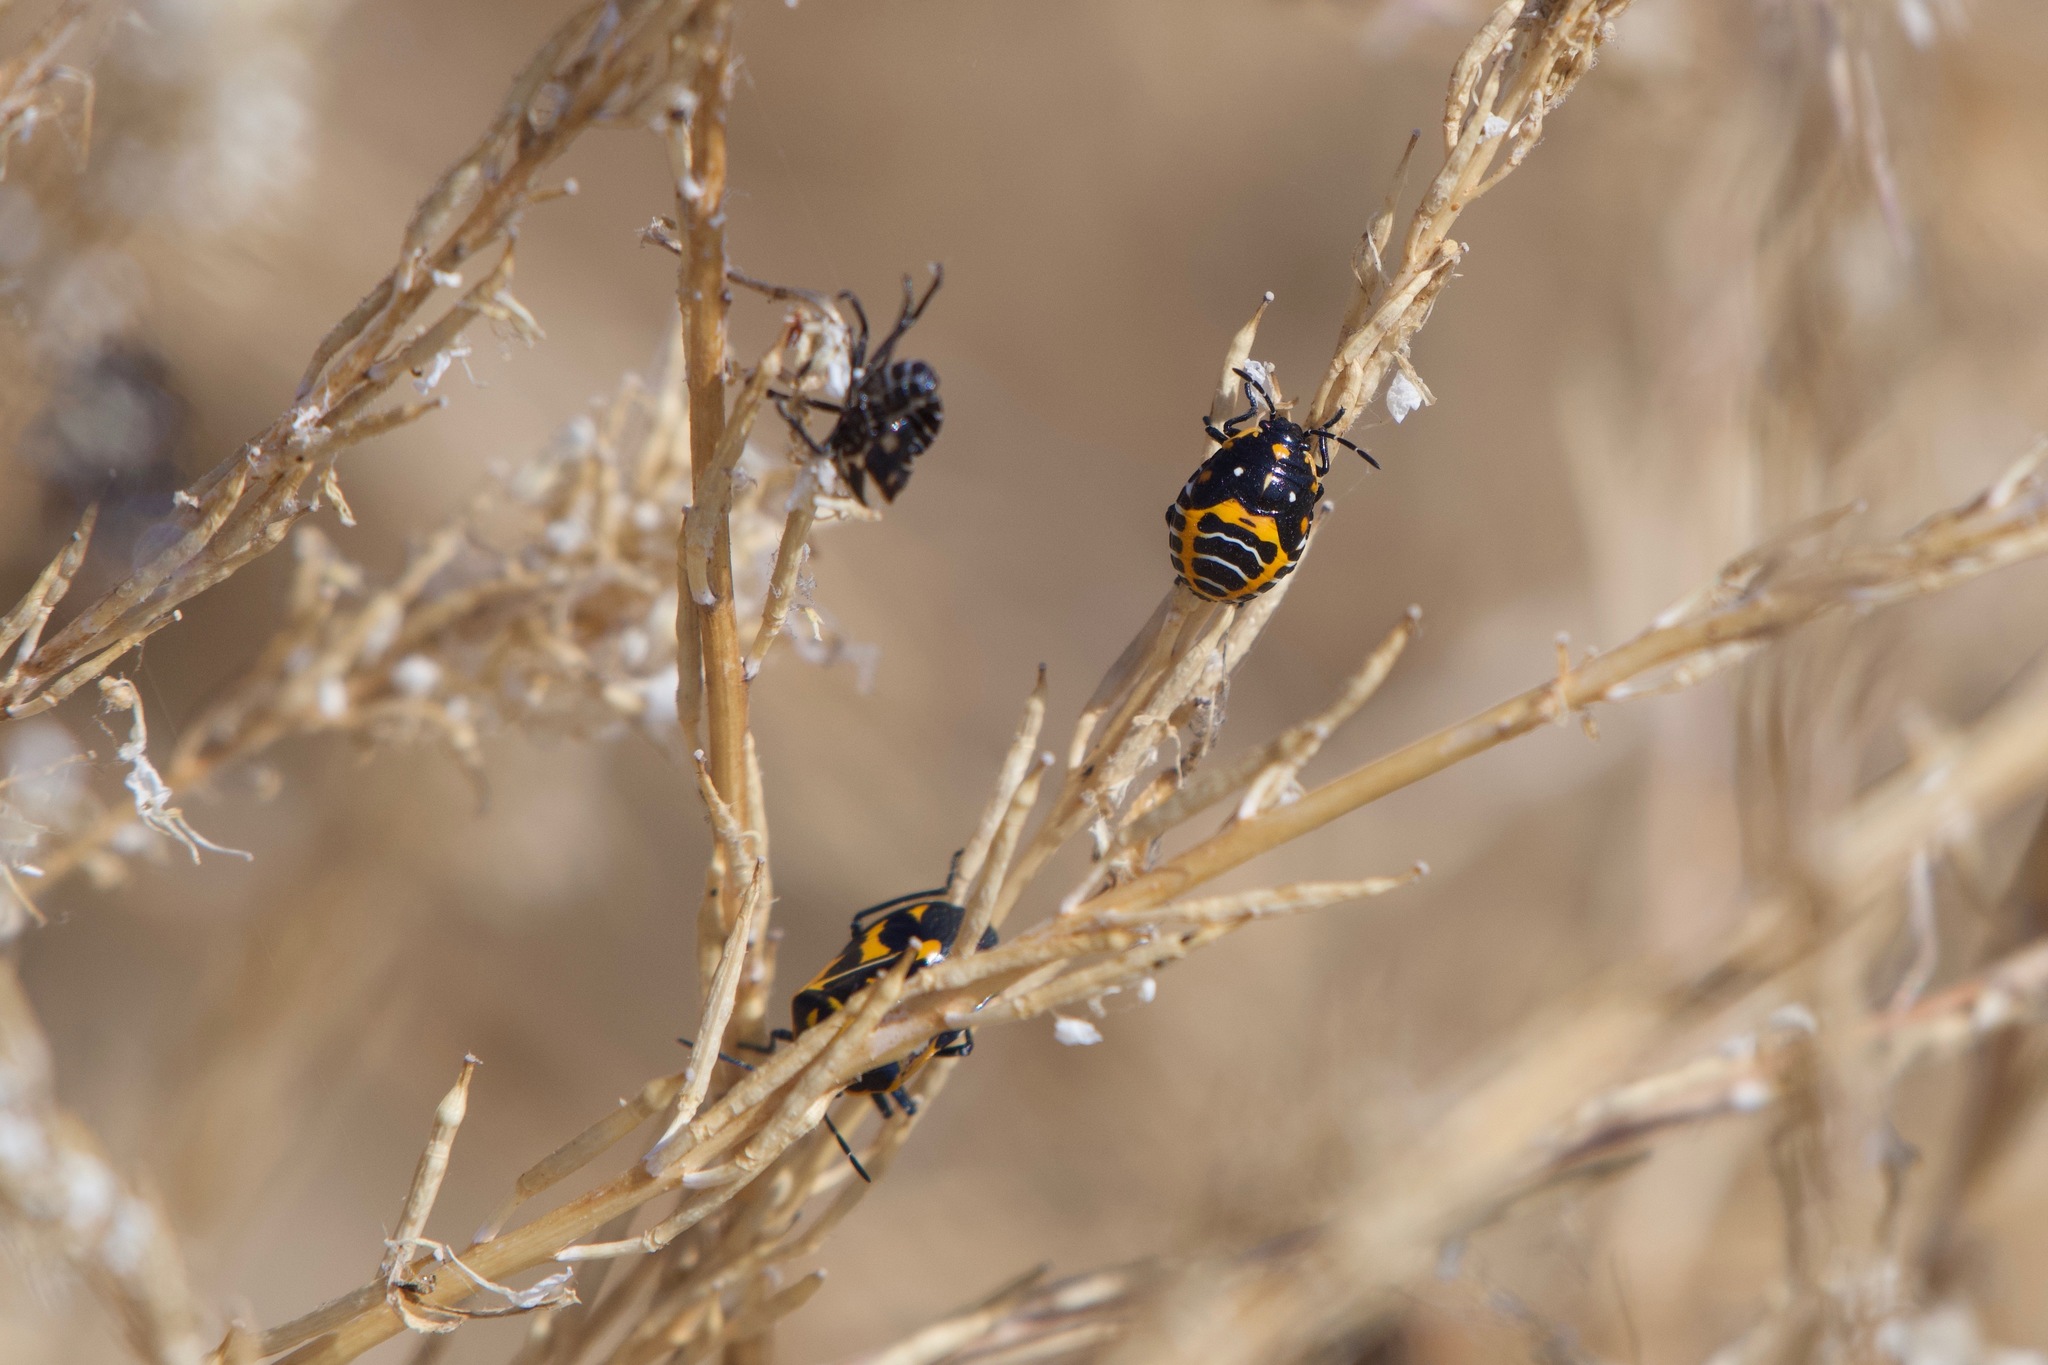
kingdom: Animalia
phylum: Arthropoda
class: Insecta
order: Hemiptera
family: Pentatomidae
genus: Murgantia
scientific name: Murgantia histrionica
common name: Harlequin bug
